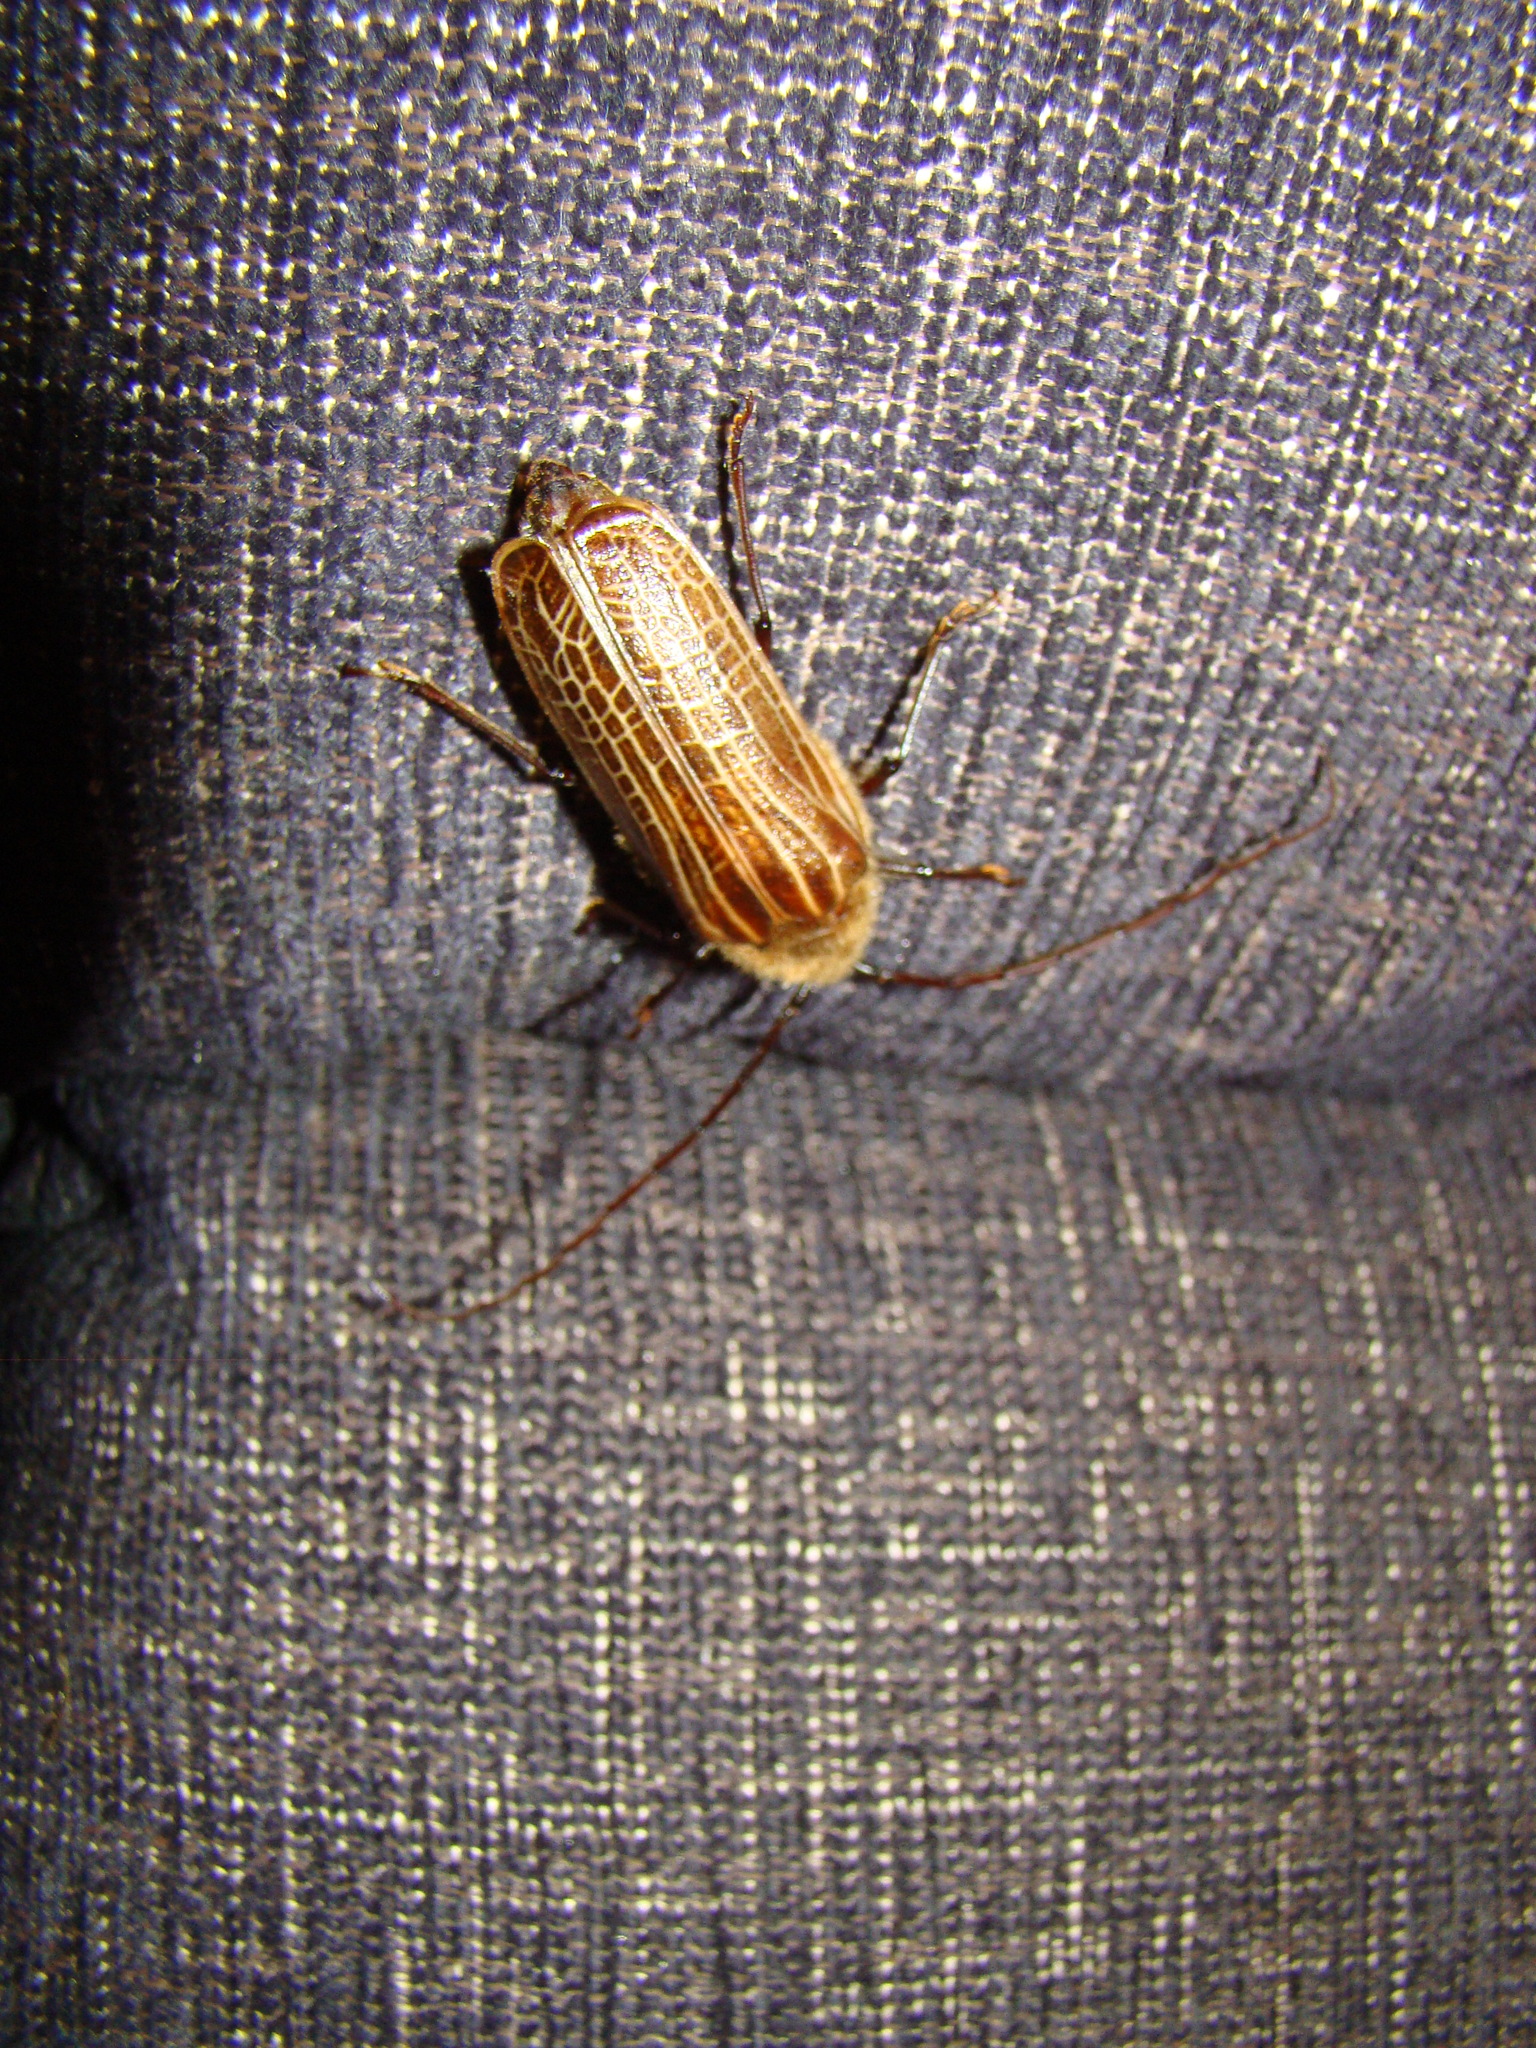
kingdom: Animalia
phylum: Arthropoda
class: Insecta
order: Coleoptera
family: Cerambycidae
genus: Prionoplus
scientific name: Prionoplus reticularis
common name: Huhu beetle
